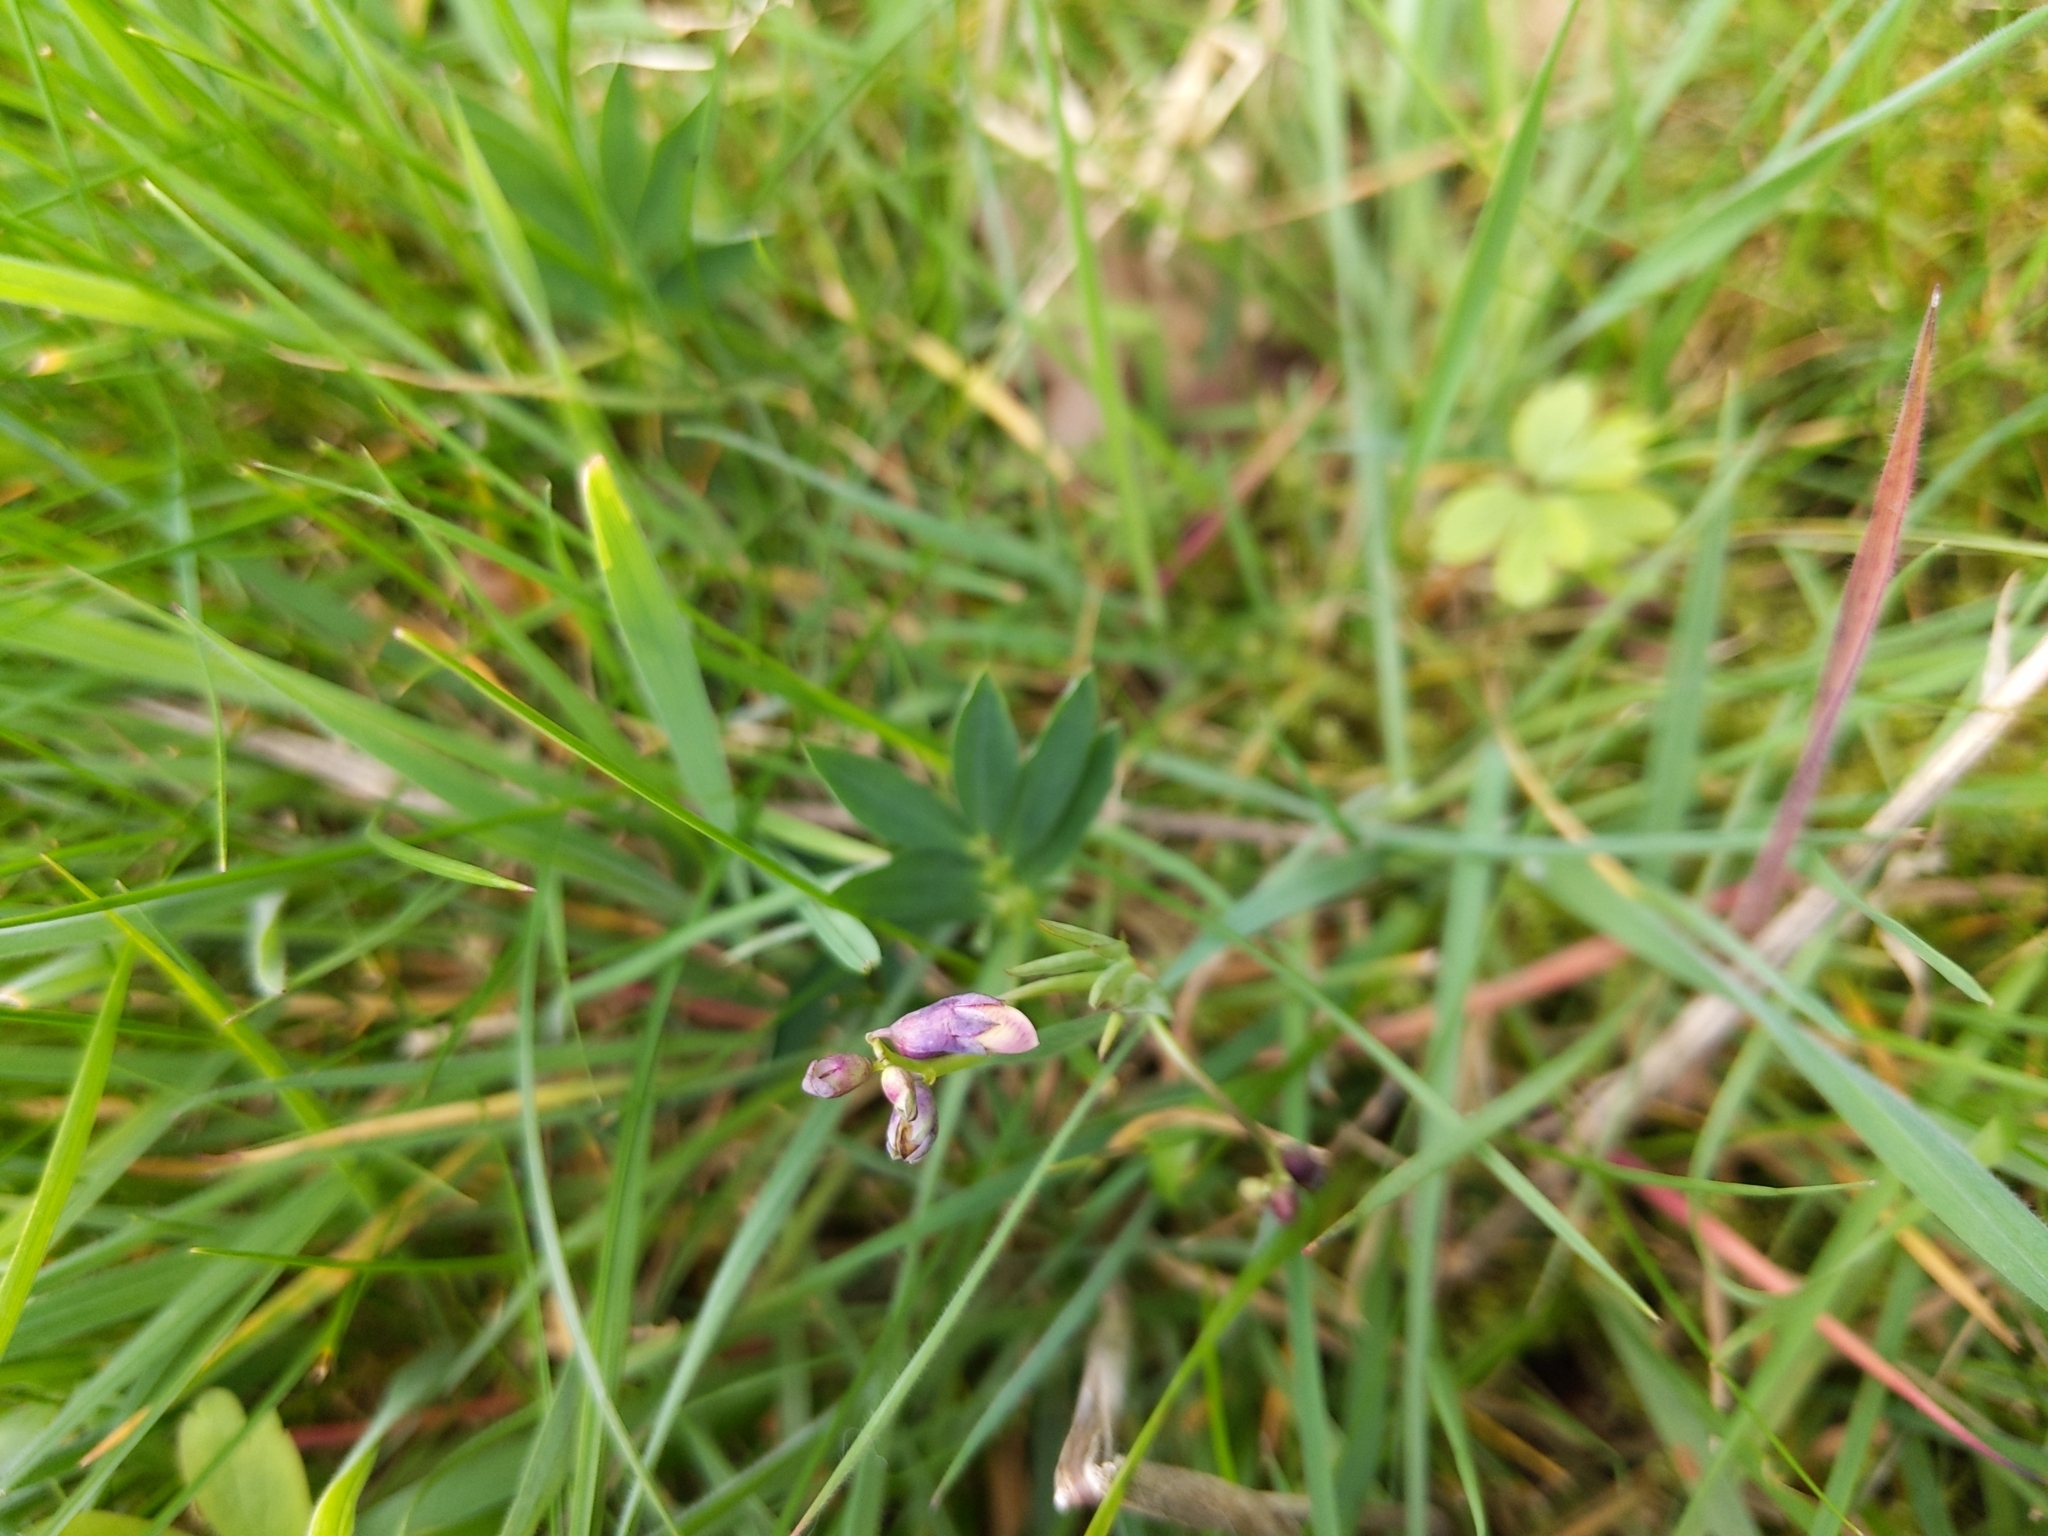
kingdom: Plantae
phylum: Tracheophyta
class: Magnoliopsida
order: Fabales
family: Fabaceae
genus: Lathyrus
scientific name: Lathyrus linifolius
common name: Bitter-vetch
